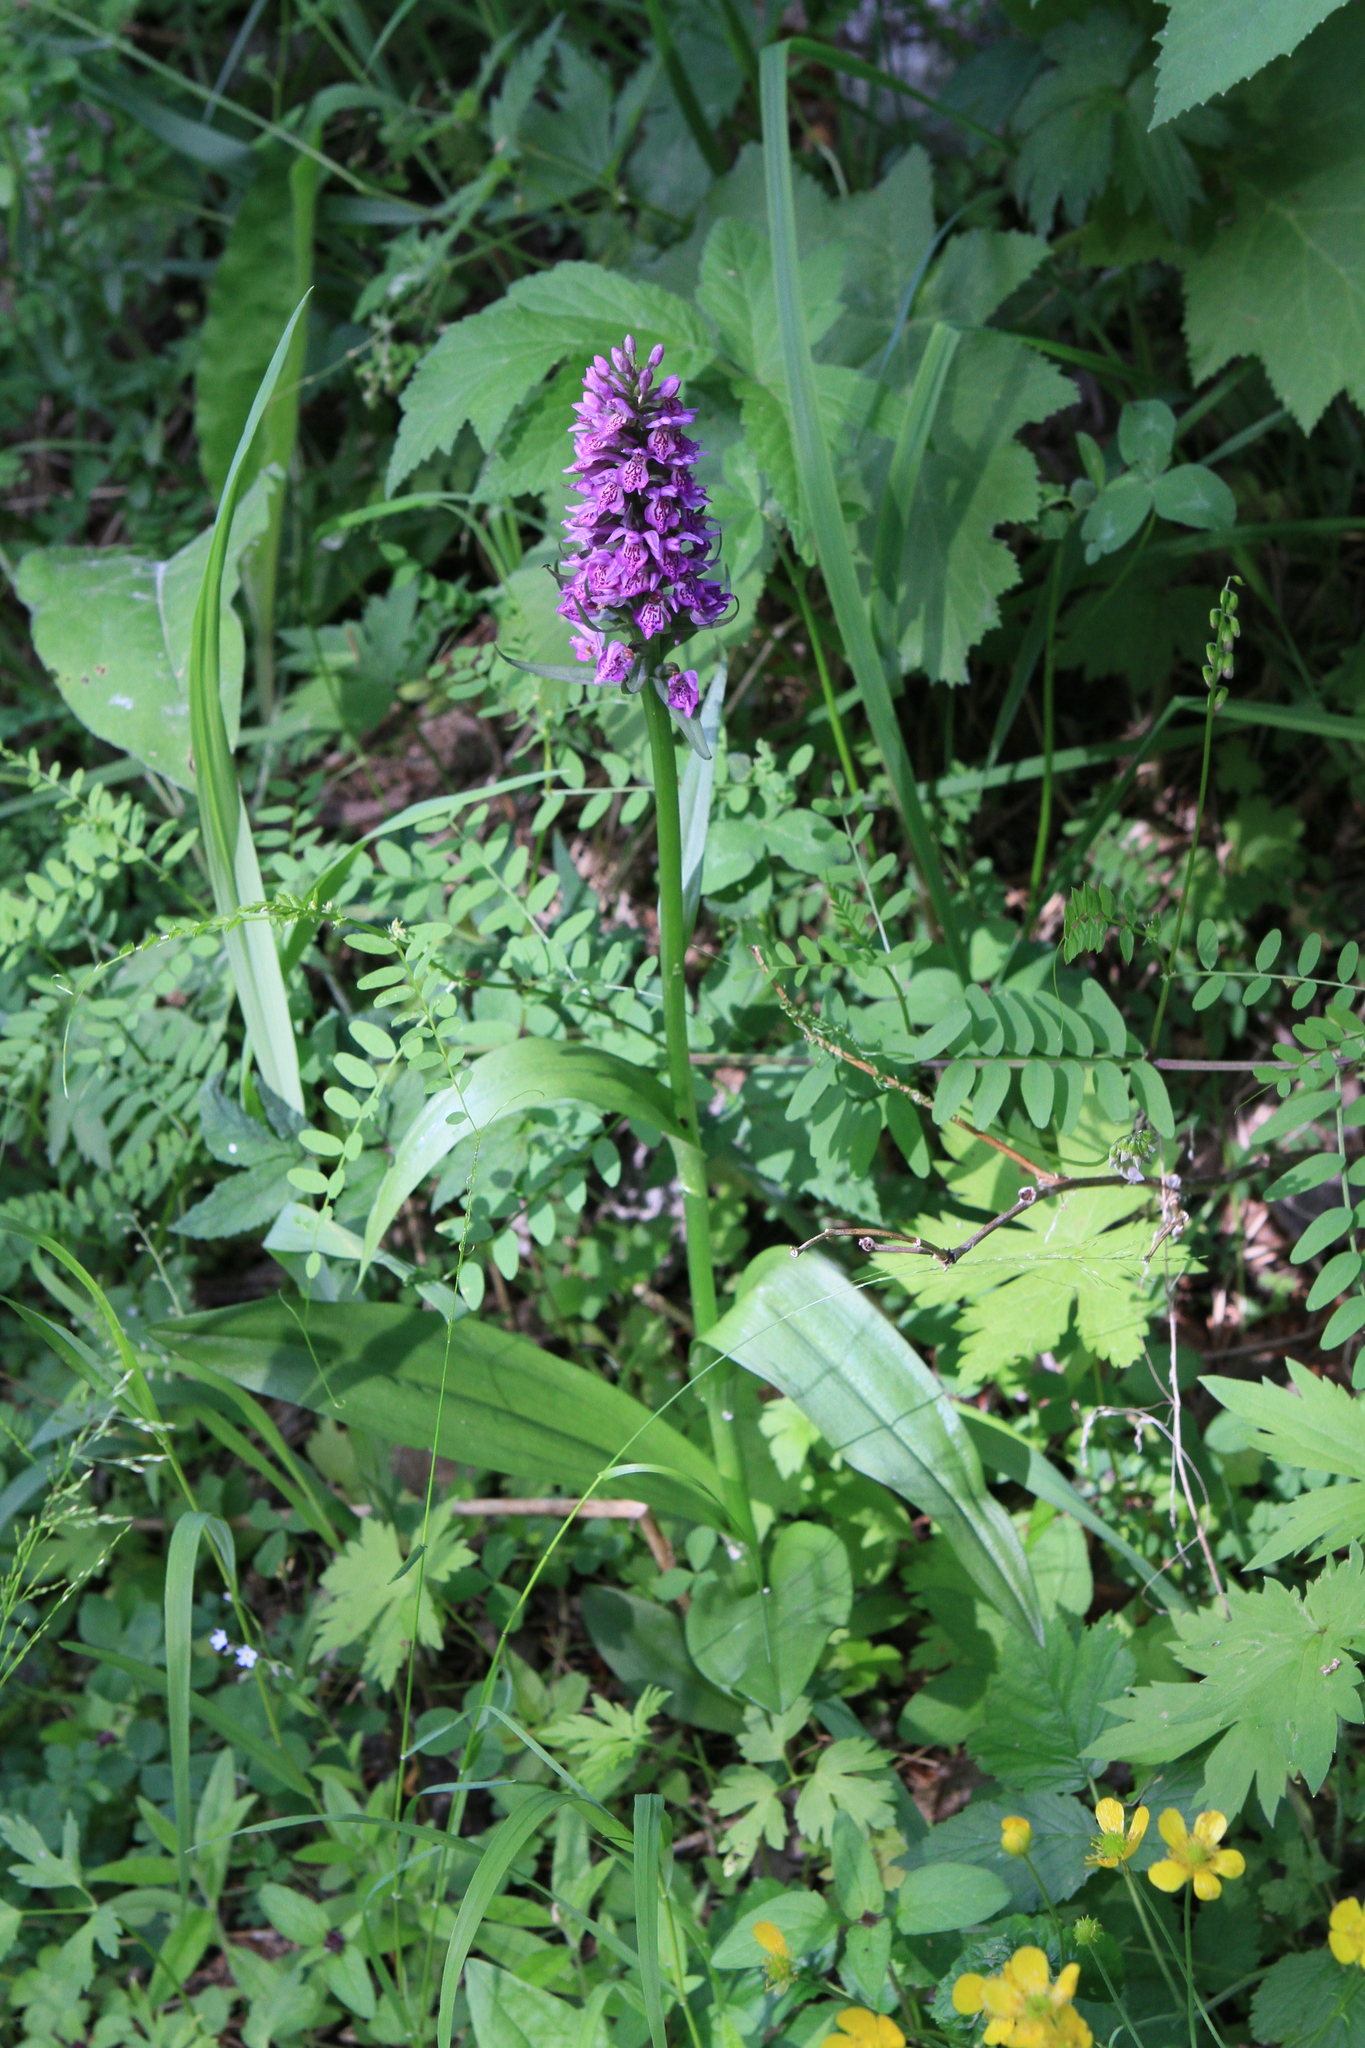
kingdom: Plantae
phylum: Tracheophyta
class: Liliopsida
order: Asparagales
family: Orchidaceae
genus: Dactylorhiza
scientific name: Dactylorhiza sibirica
